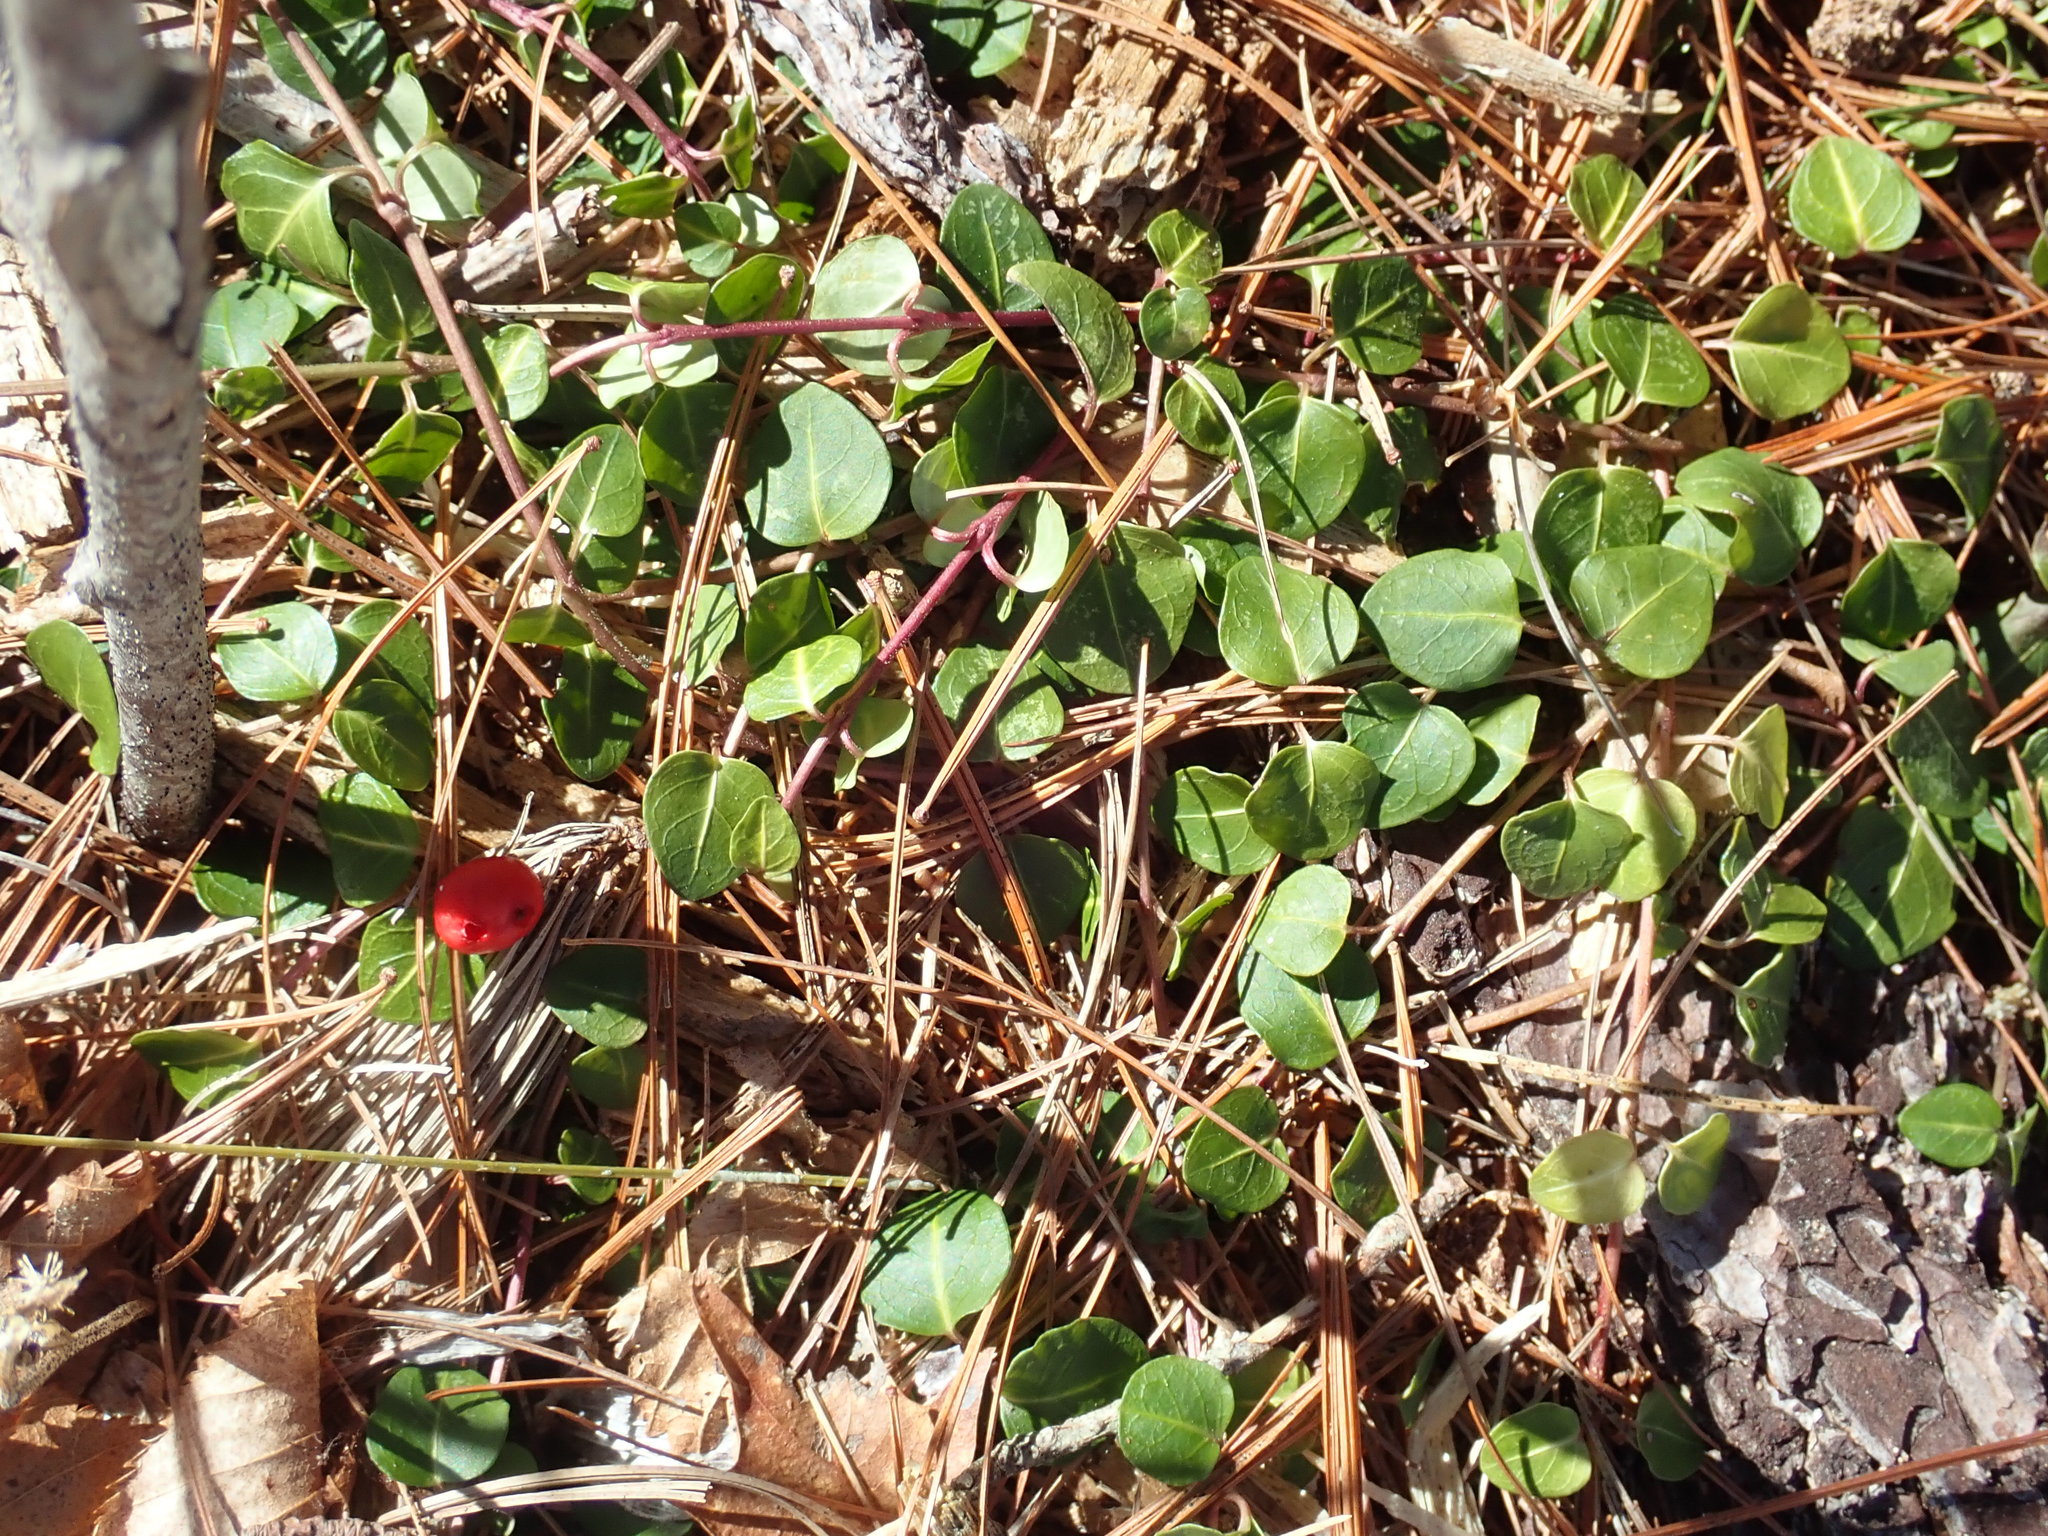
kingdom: Plantae
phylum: Tracheophyta
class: Magnoliopsida
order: Gentianales
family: Rubiaceae
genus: Mitchella
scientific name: Mitchella repens
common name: Partridge-berry
